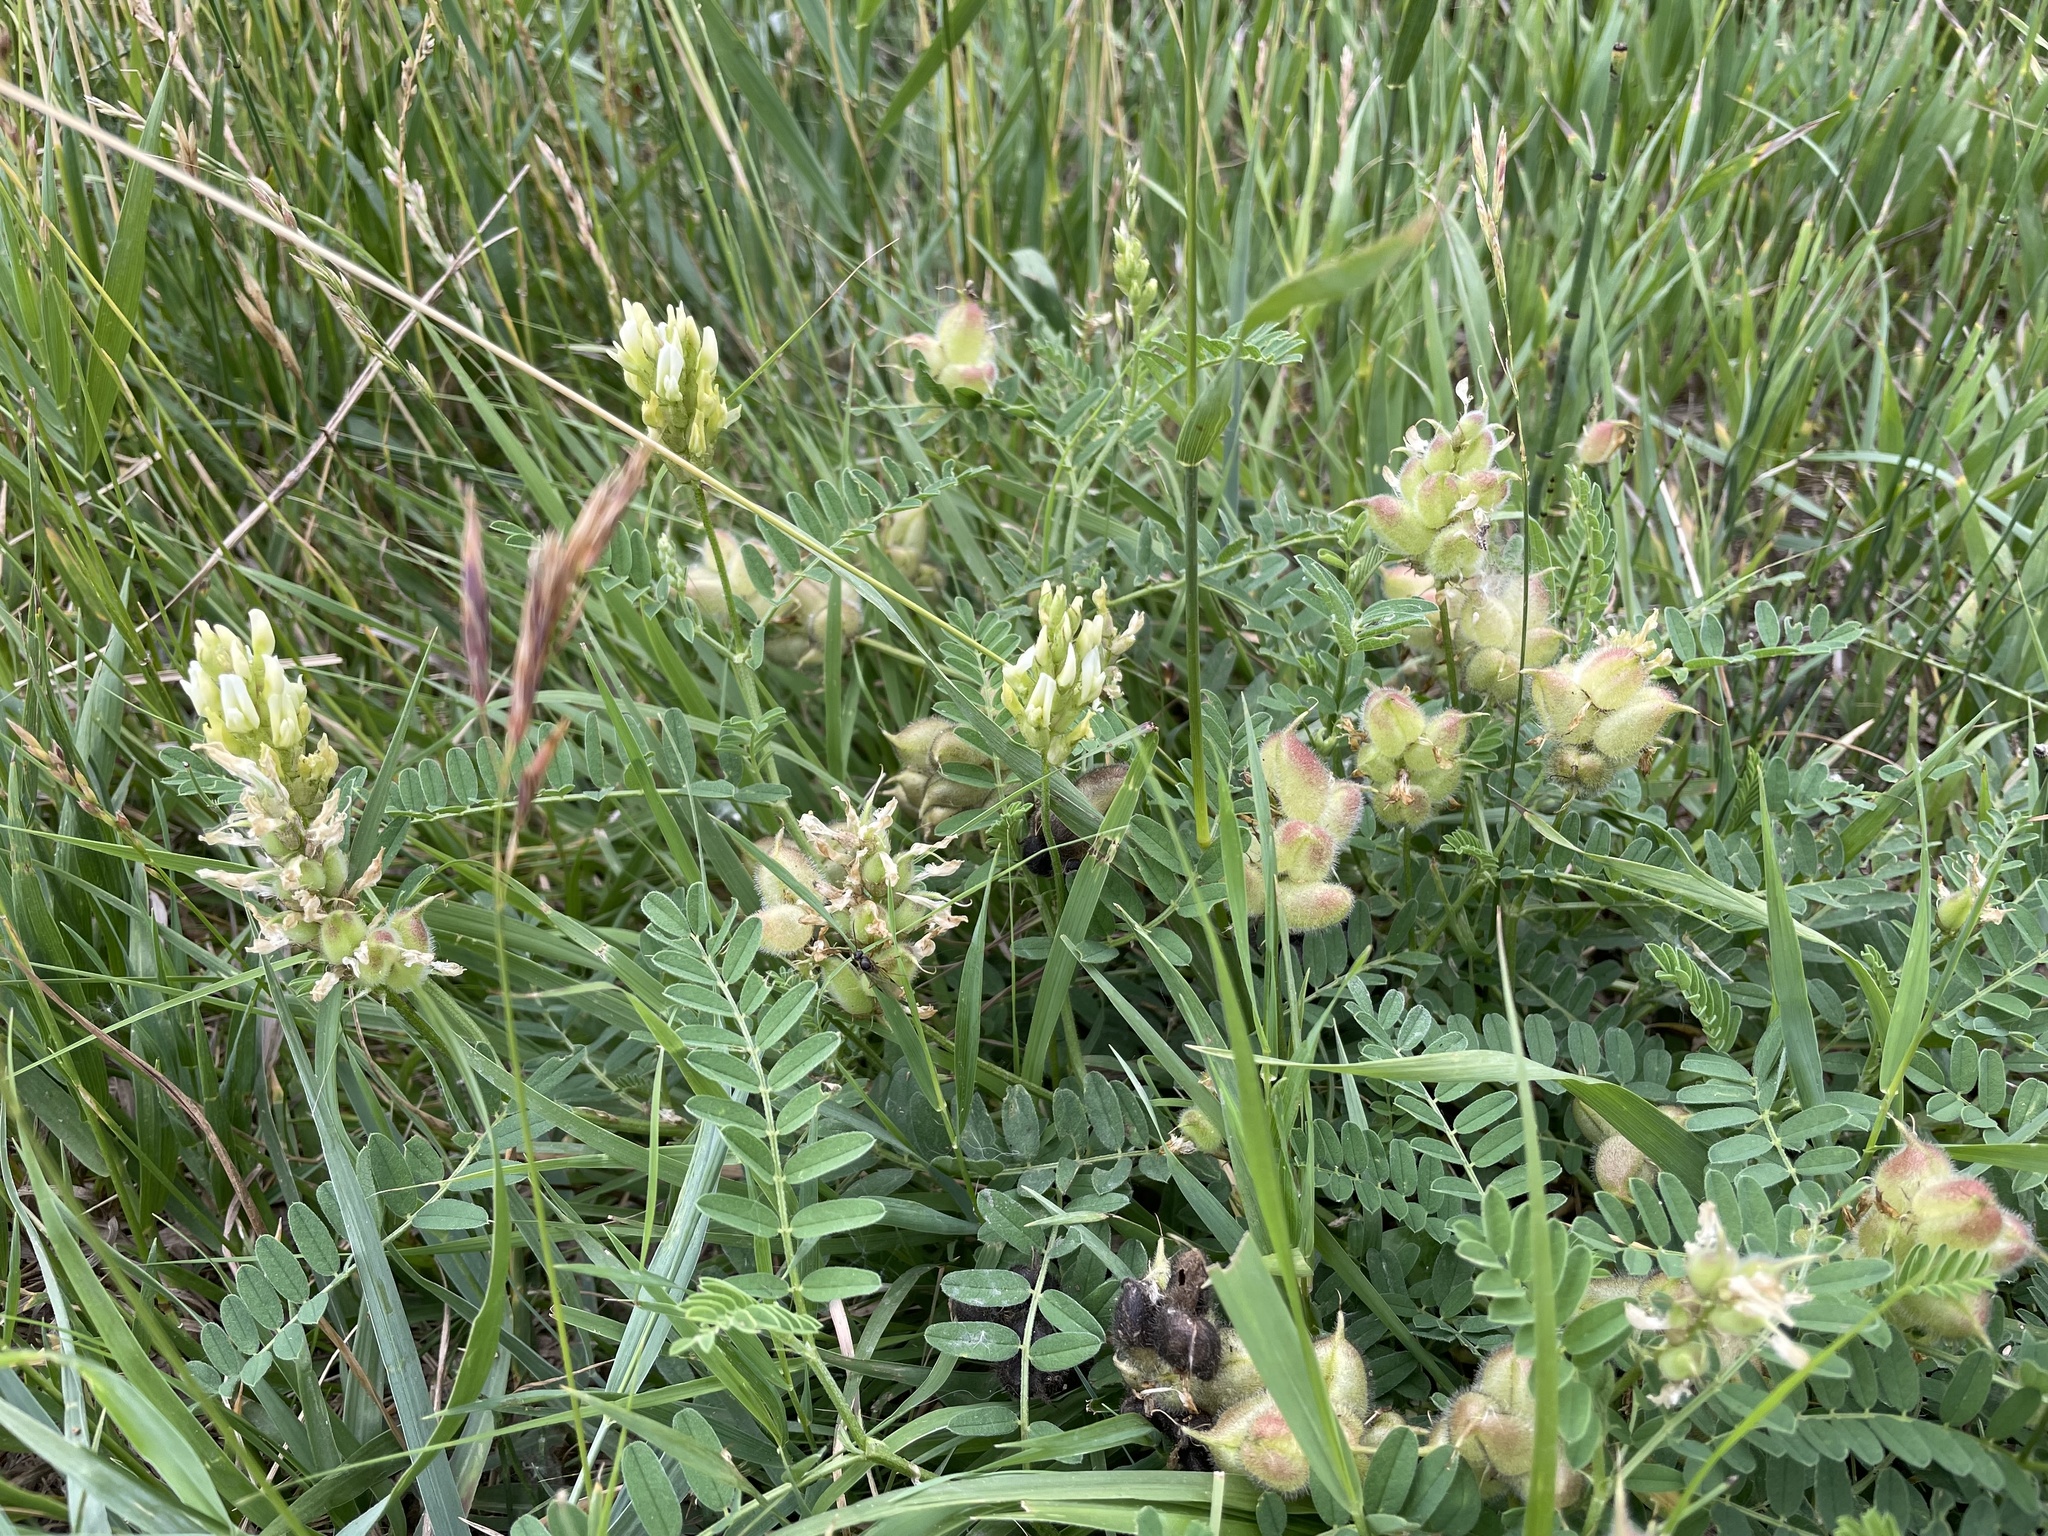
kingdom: Plantae
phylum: Tracheophyta
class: Magnoliopsida
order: Fabales
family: Fabaceae
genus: Astragalus
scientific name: Astragalus cicer
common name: Chick-pea milk-vetch
